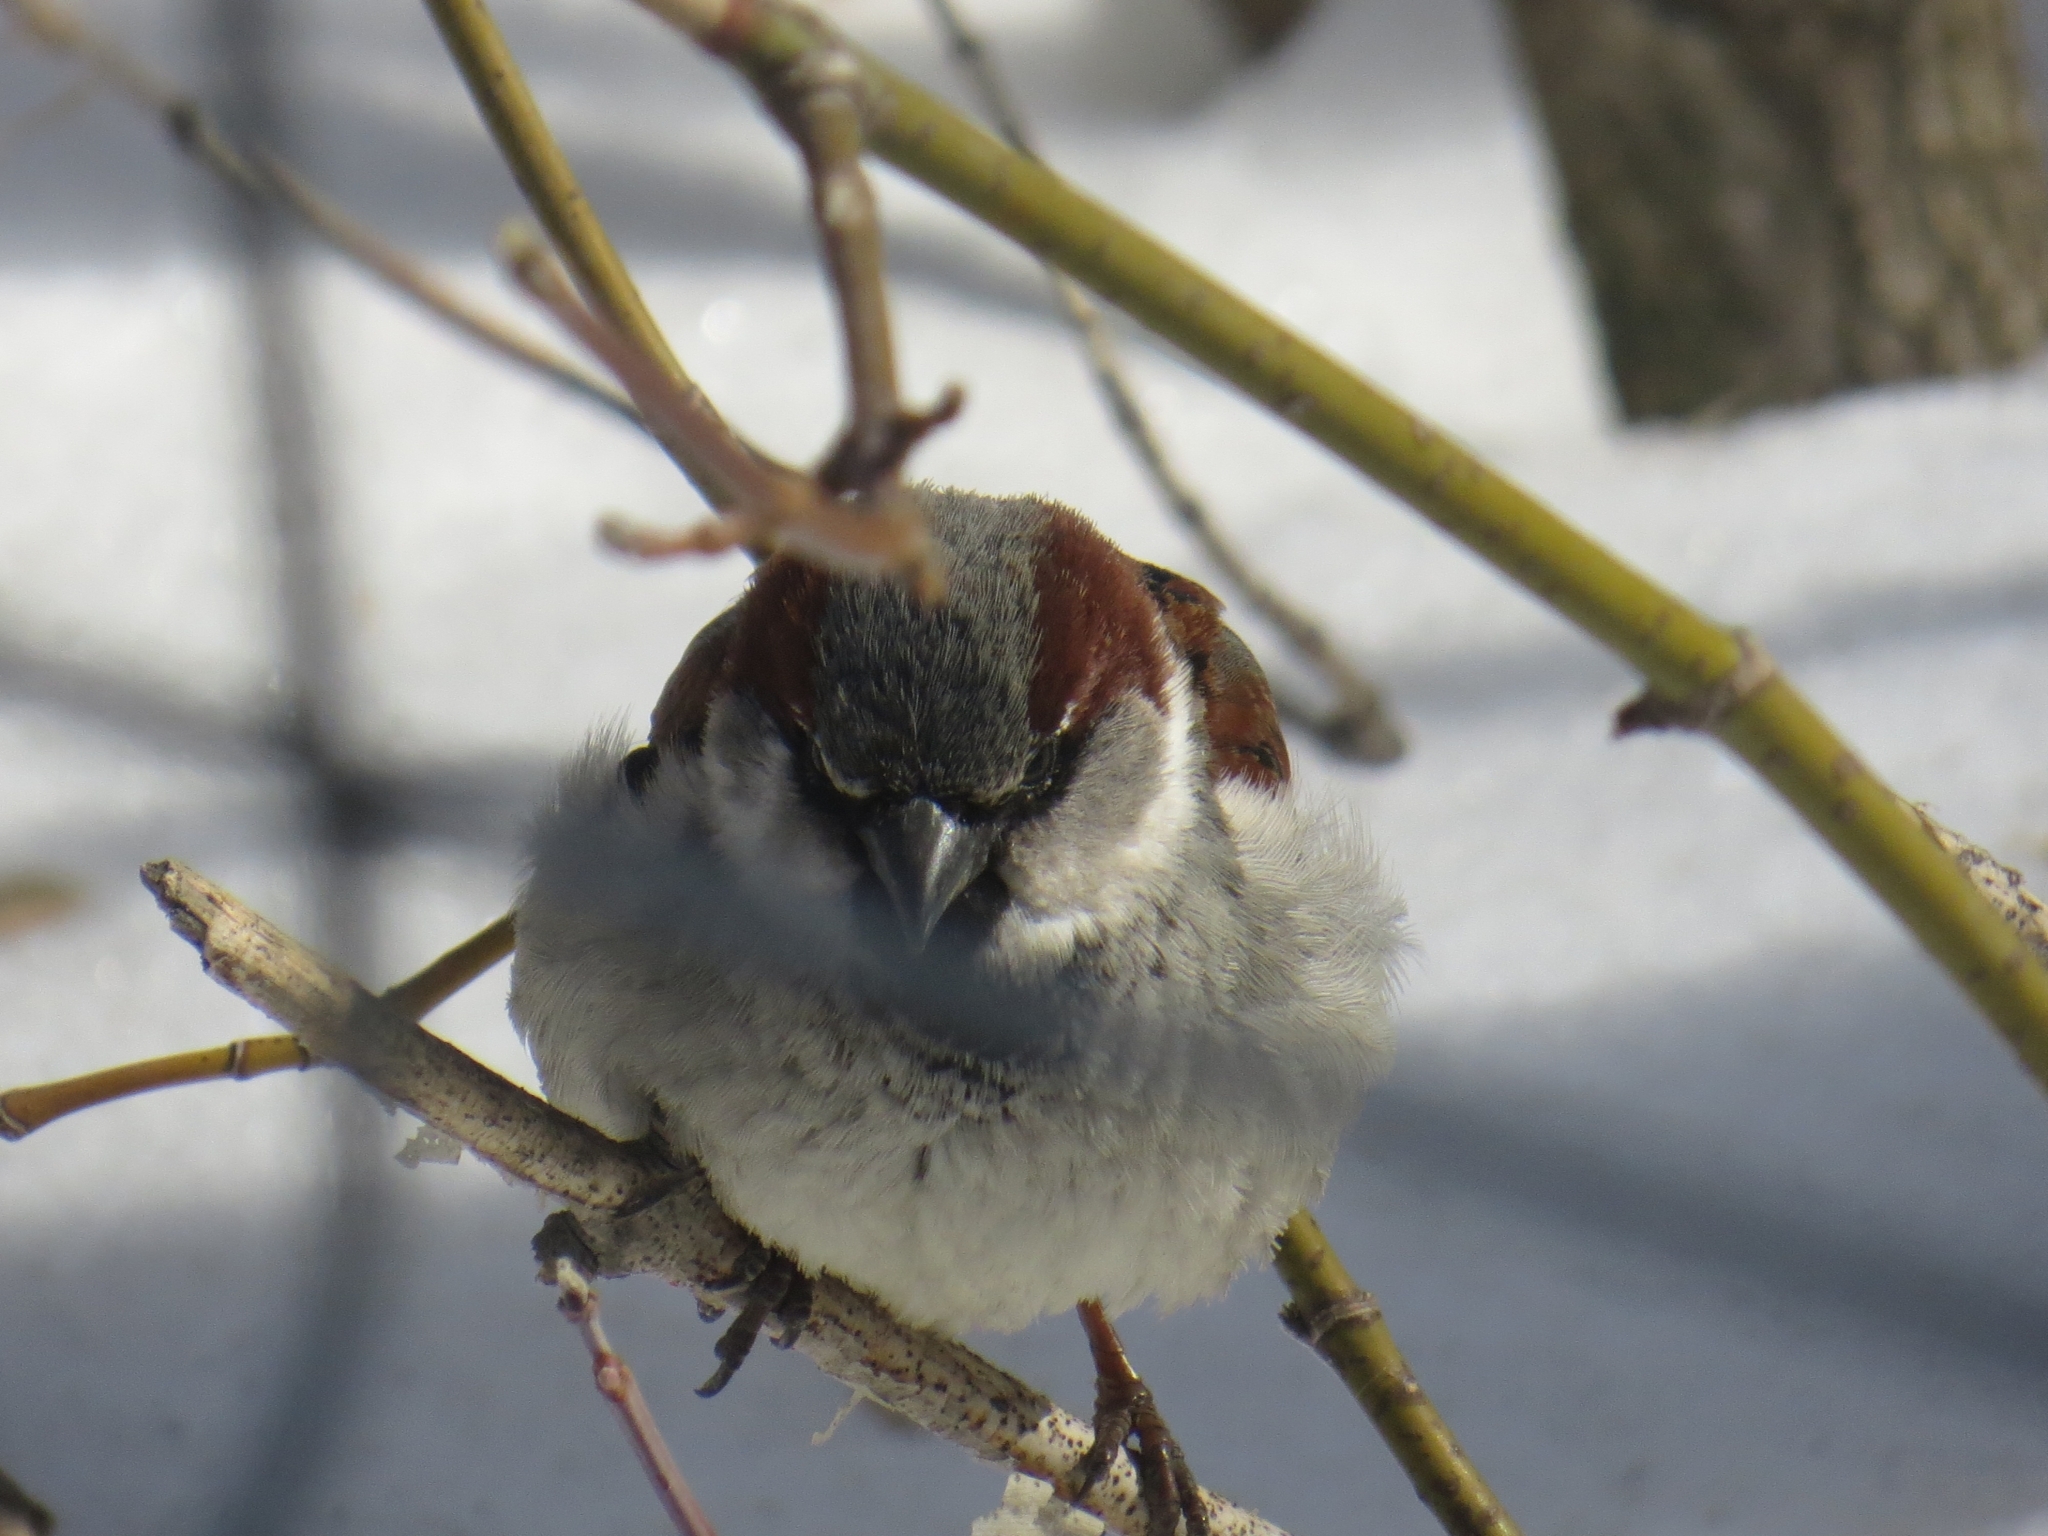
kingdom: Animalia
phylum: Chordata
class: Aves
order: Passeriformes
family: Passeridae
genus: Passer
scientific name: Passer domesticus
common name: House sparrow
